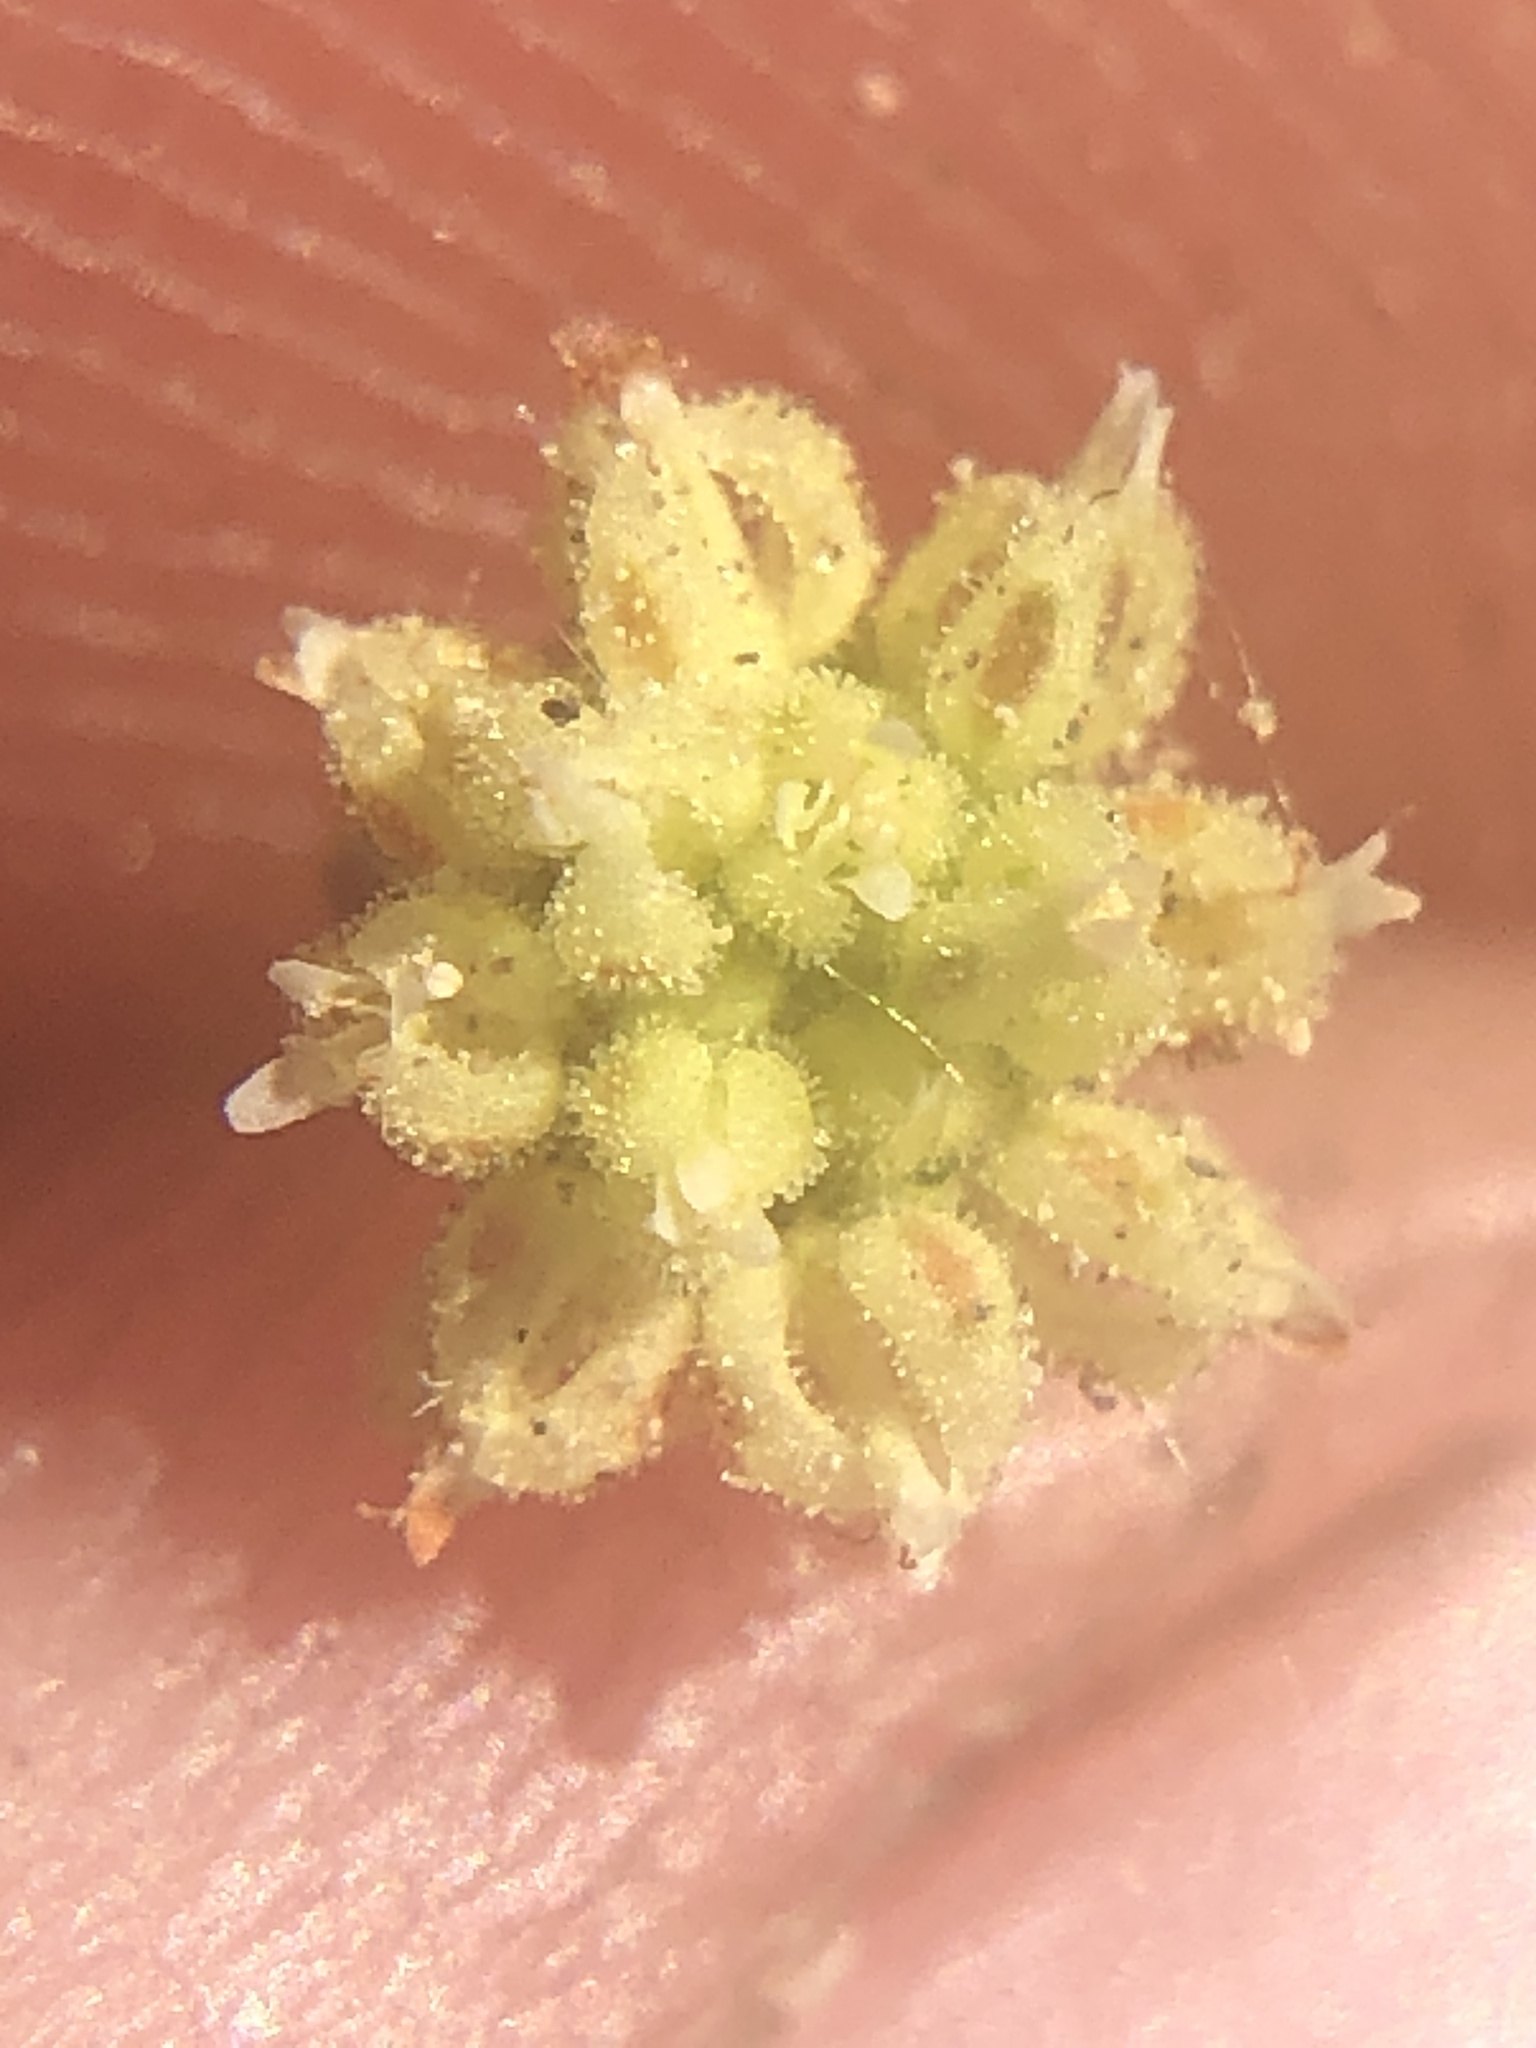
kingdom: Plantae
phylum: Tracheophyta
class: Magnoliopsida
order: Caryophyllales
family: Polygonaceae
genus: Eriogonum
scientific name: Eriogonum maculatum
